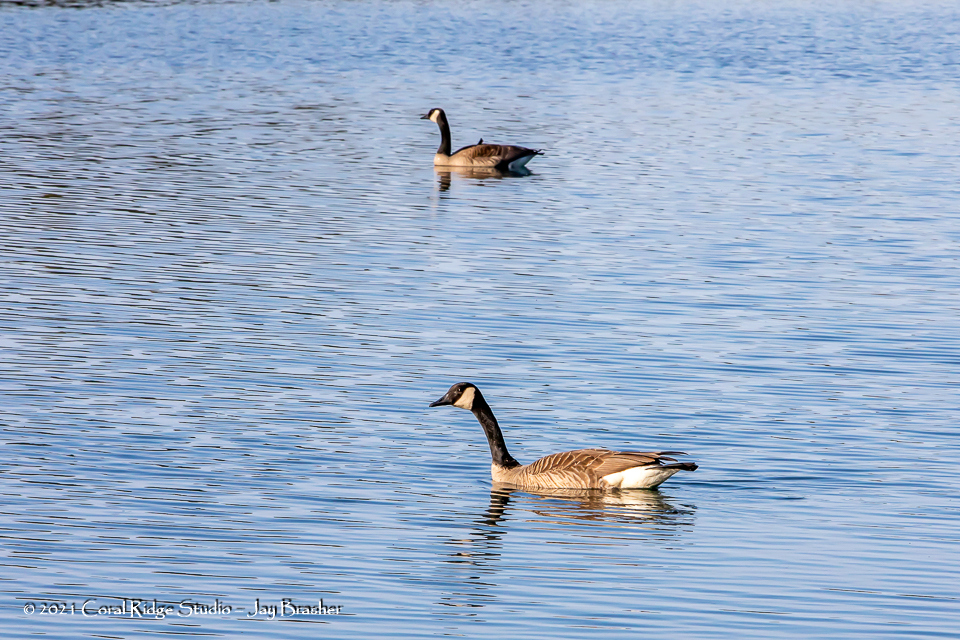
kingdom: Animalia
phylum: Chordata
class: Aves
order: Anseriformes
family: Anatidae
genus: Branta
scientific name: Branta canadensis
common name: Canada goose
